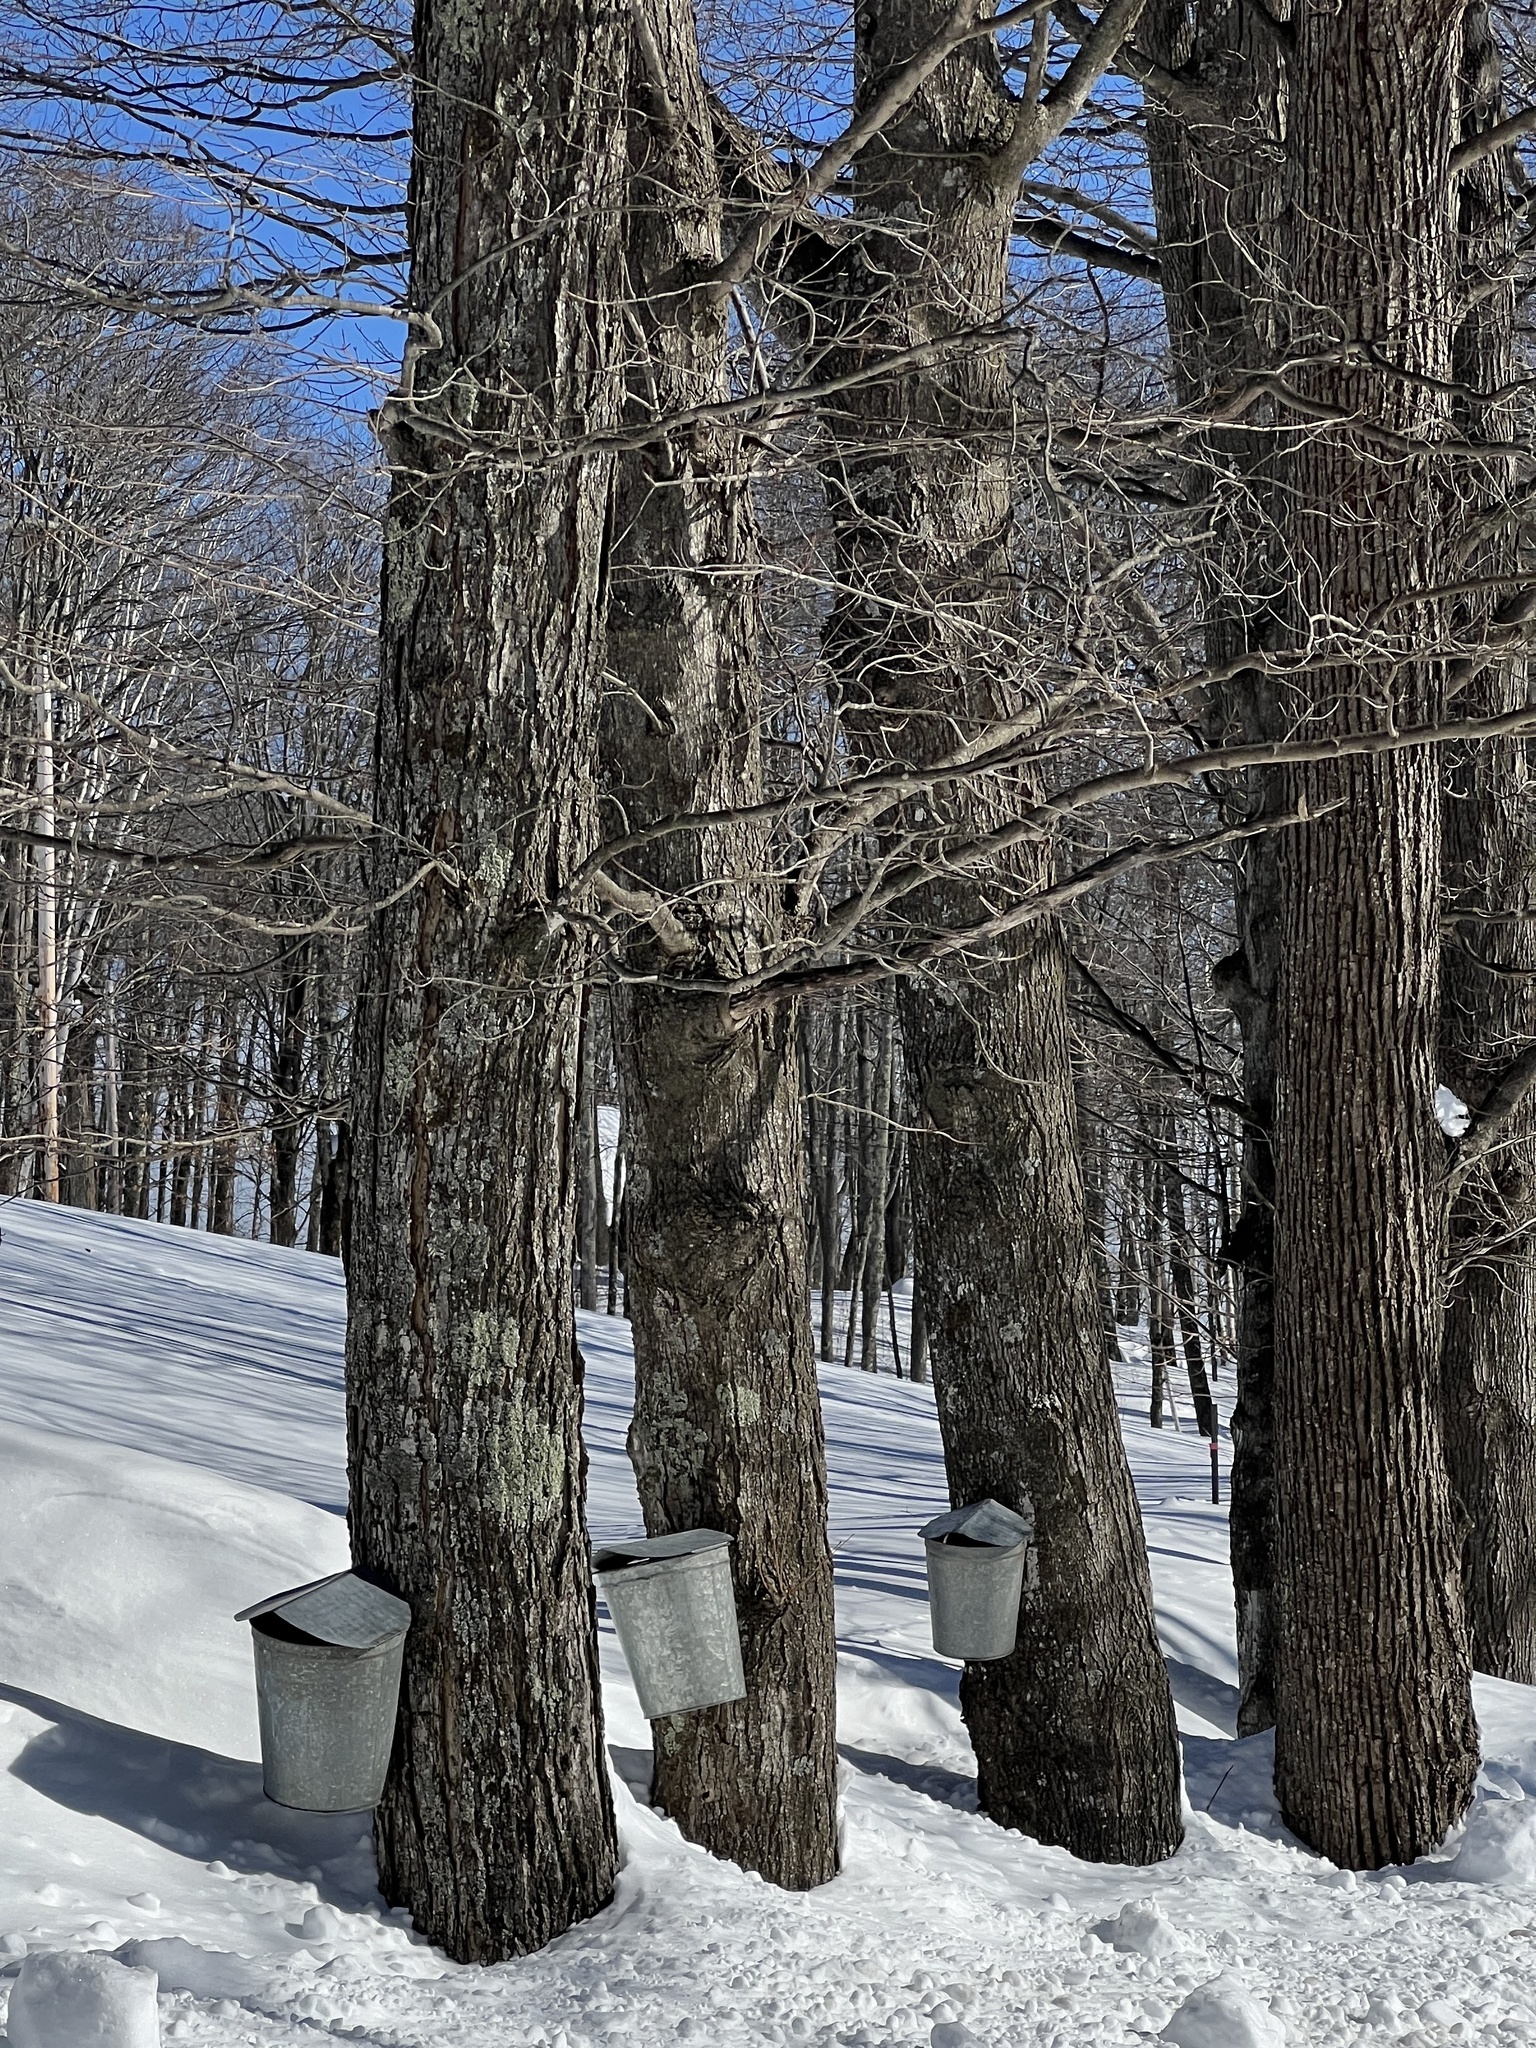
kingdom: Plantae
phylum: Tracheophyta
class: Magnoliopsida
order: Sapindales
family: Sapindaceae
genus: Acer
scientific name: Acer saccharum
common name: Sugar maple
